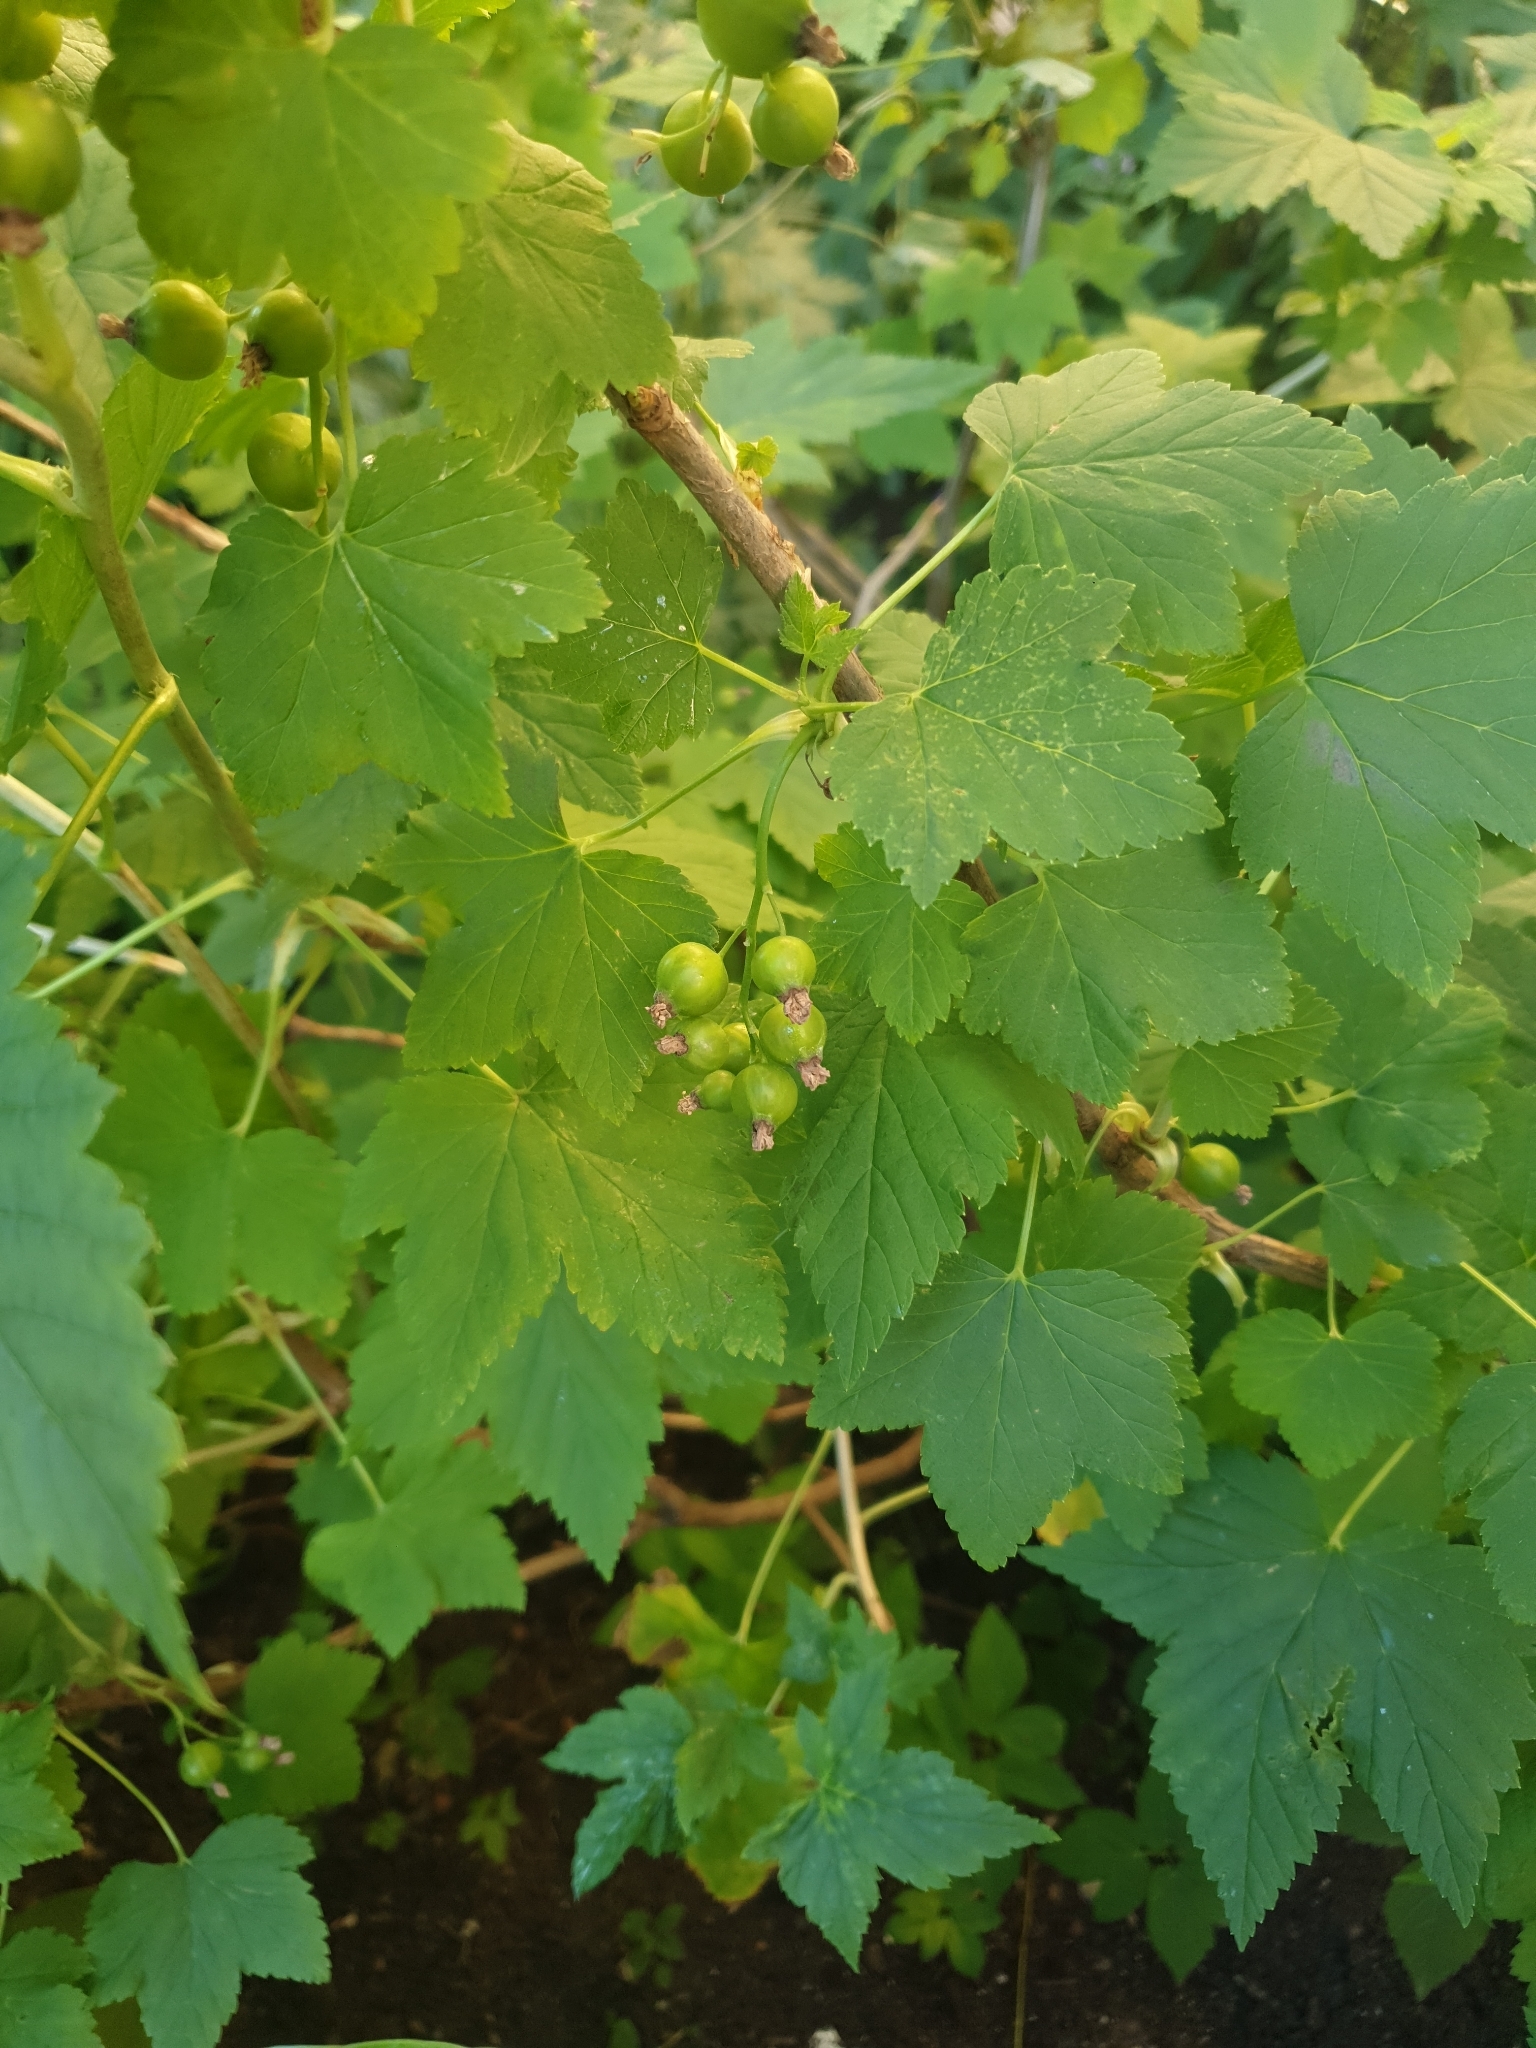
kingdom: Plantae
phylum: Tracheophyta
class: Magnoliopsida
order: Saxifragales
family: Grossulariaceae
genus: Ribes
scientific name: Ribes nigrum
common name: Black currant
